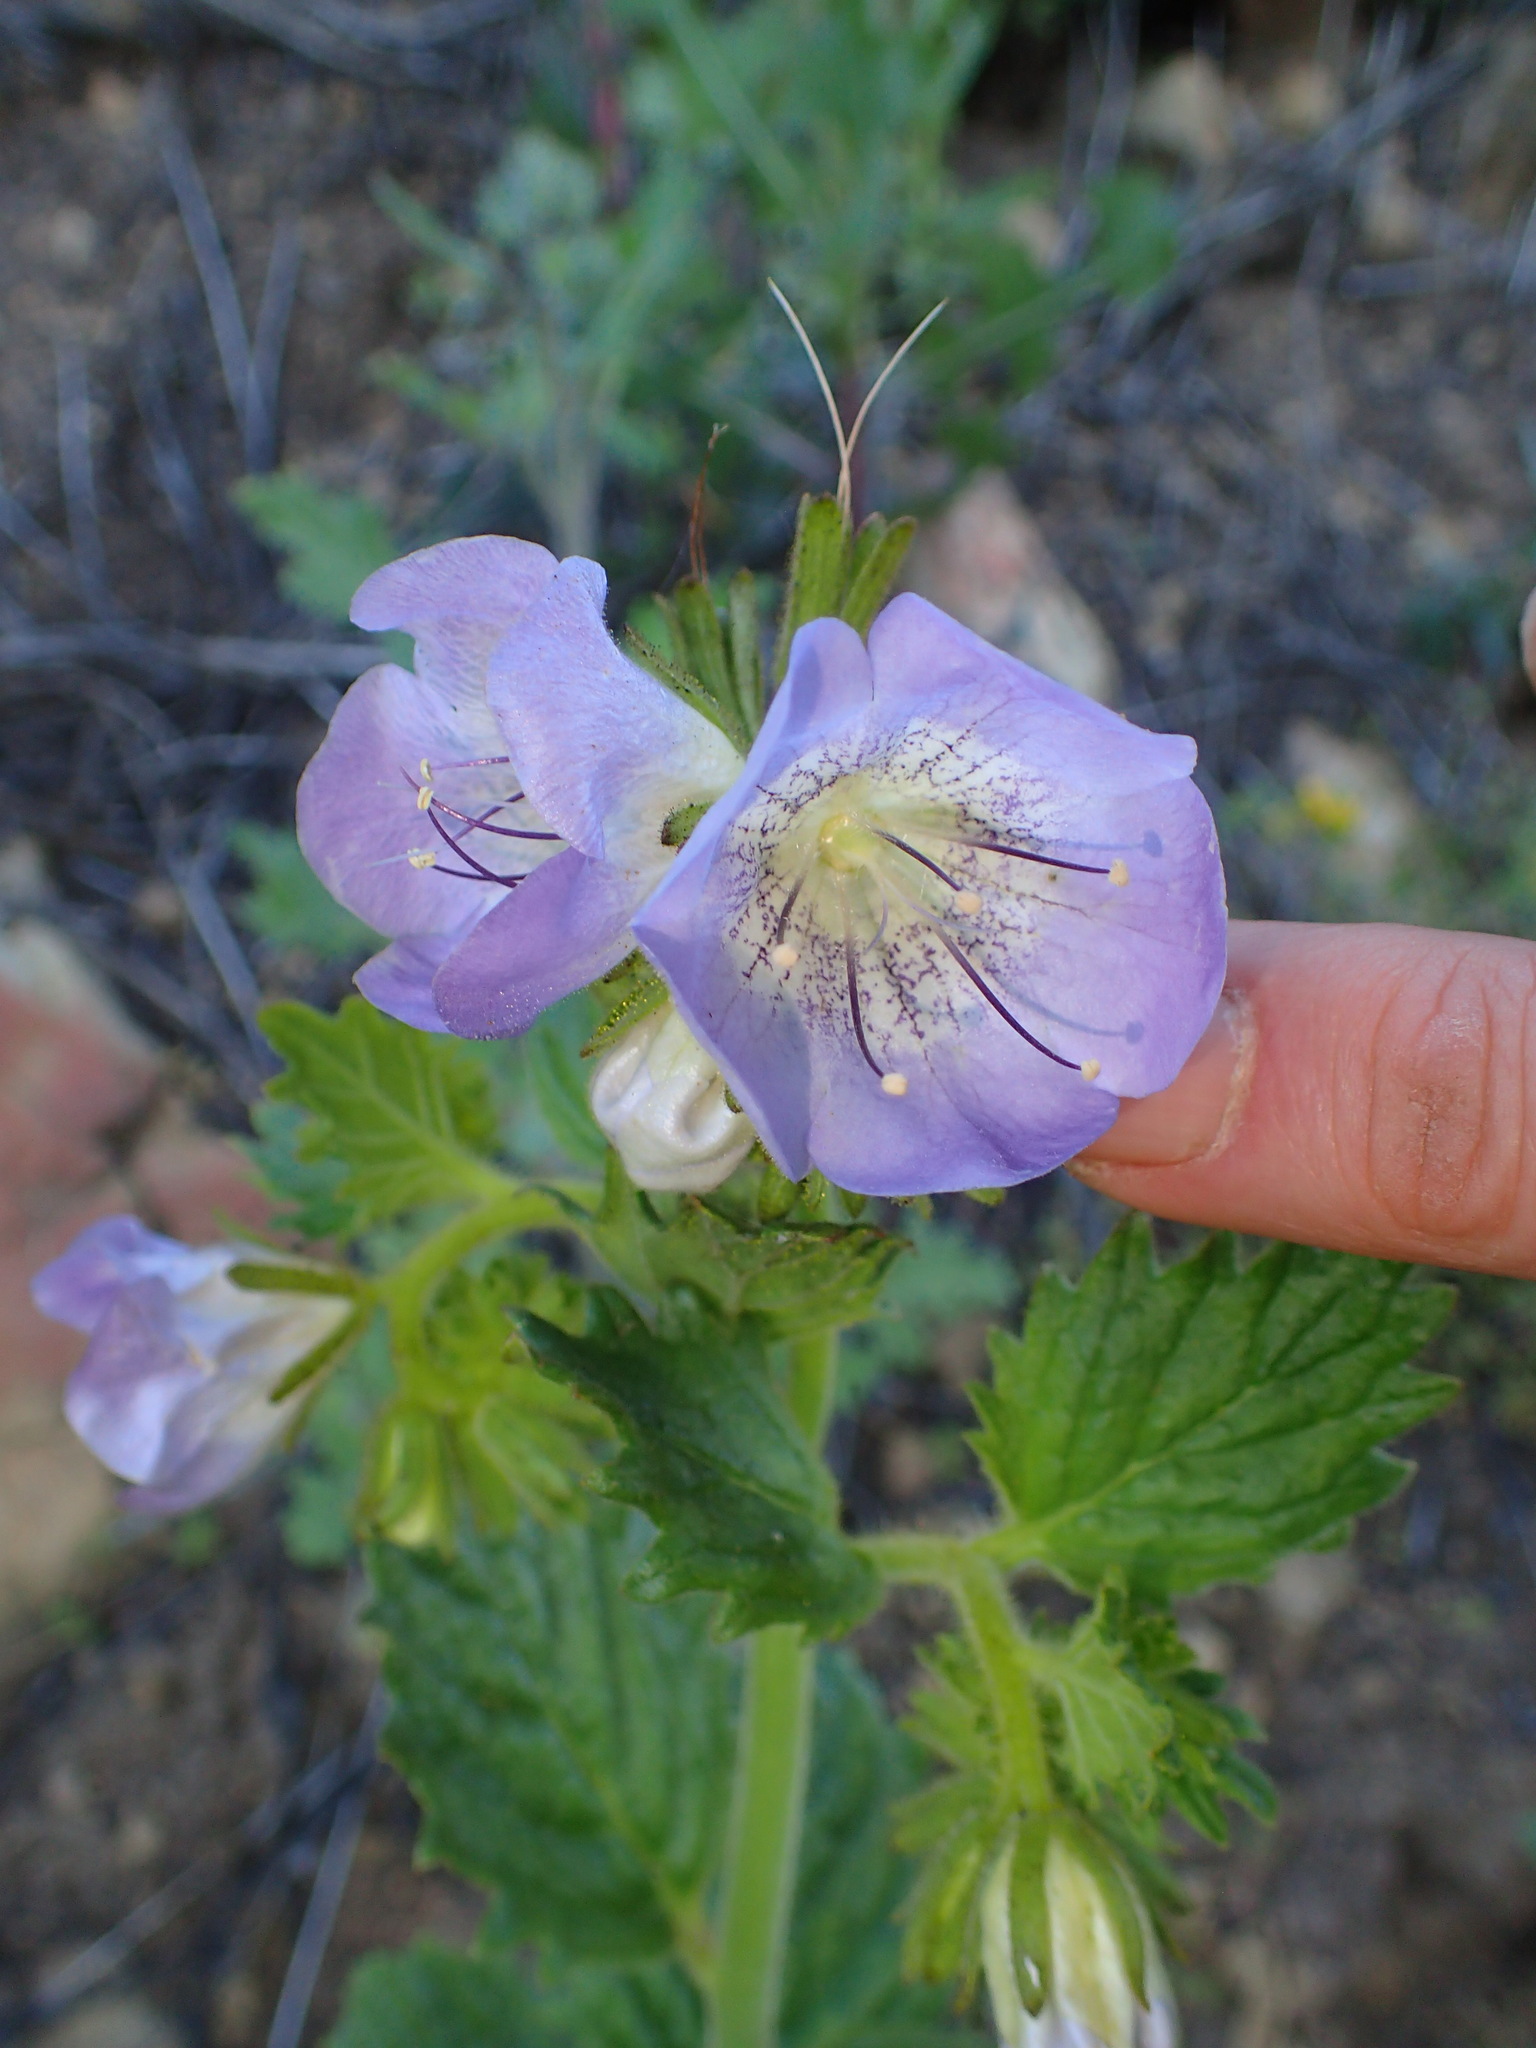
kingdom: Plantae
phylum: Tracheophyta
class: Magnoliopsida
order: Boraginales
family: Hydrophyllaceae
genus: Phacelia
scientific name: Phacelia grandiflora
